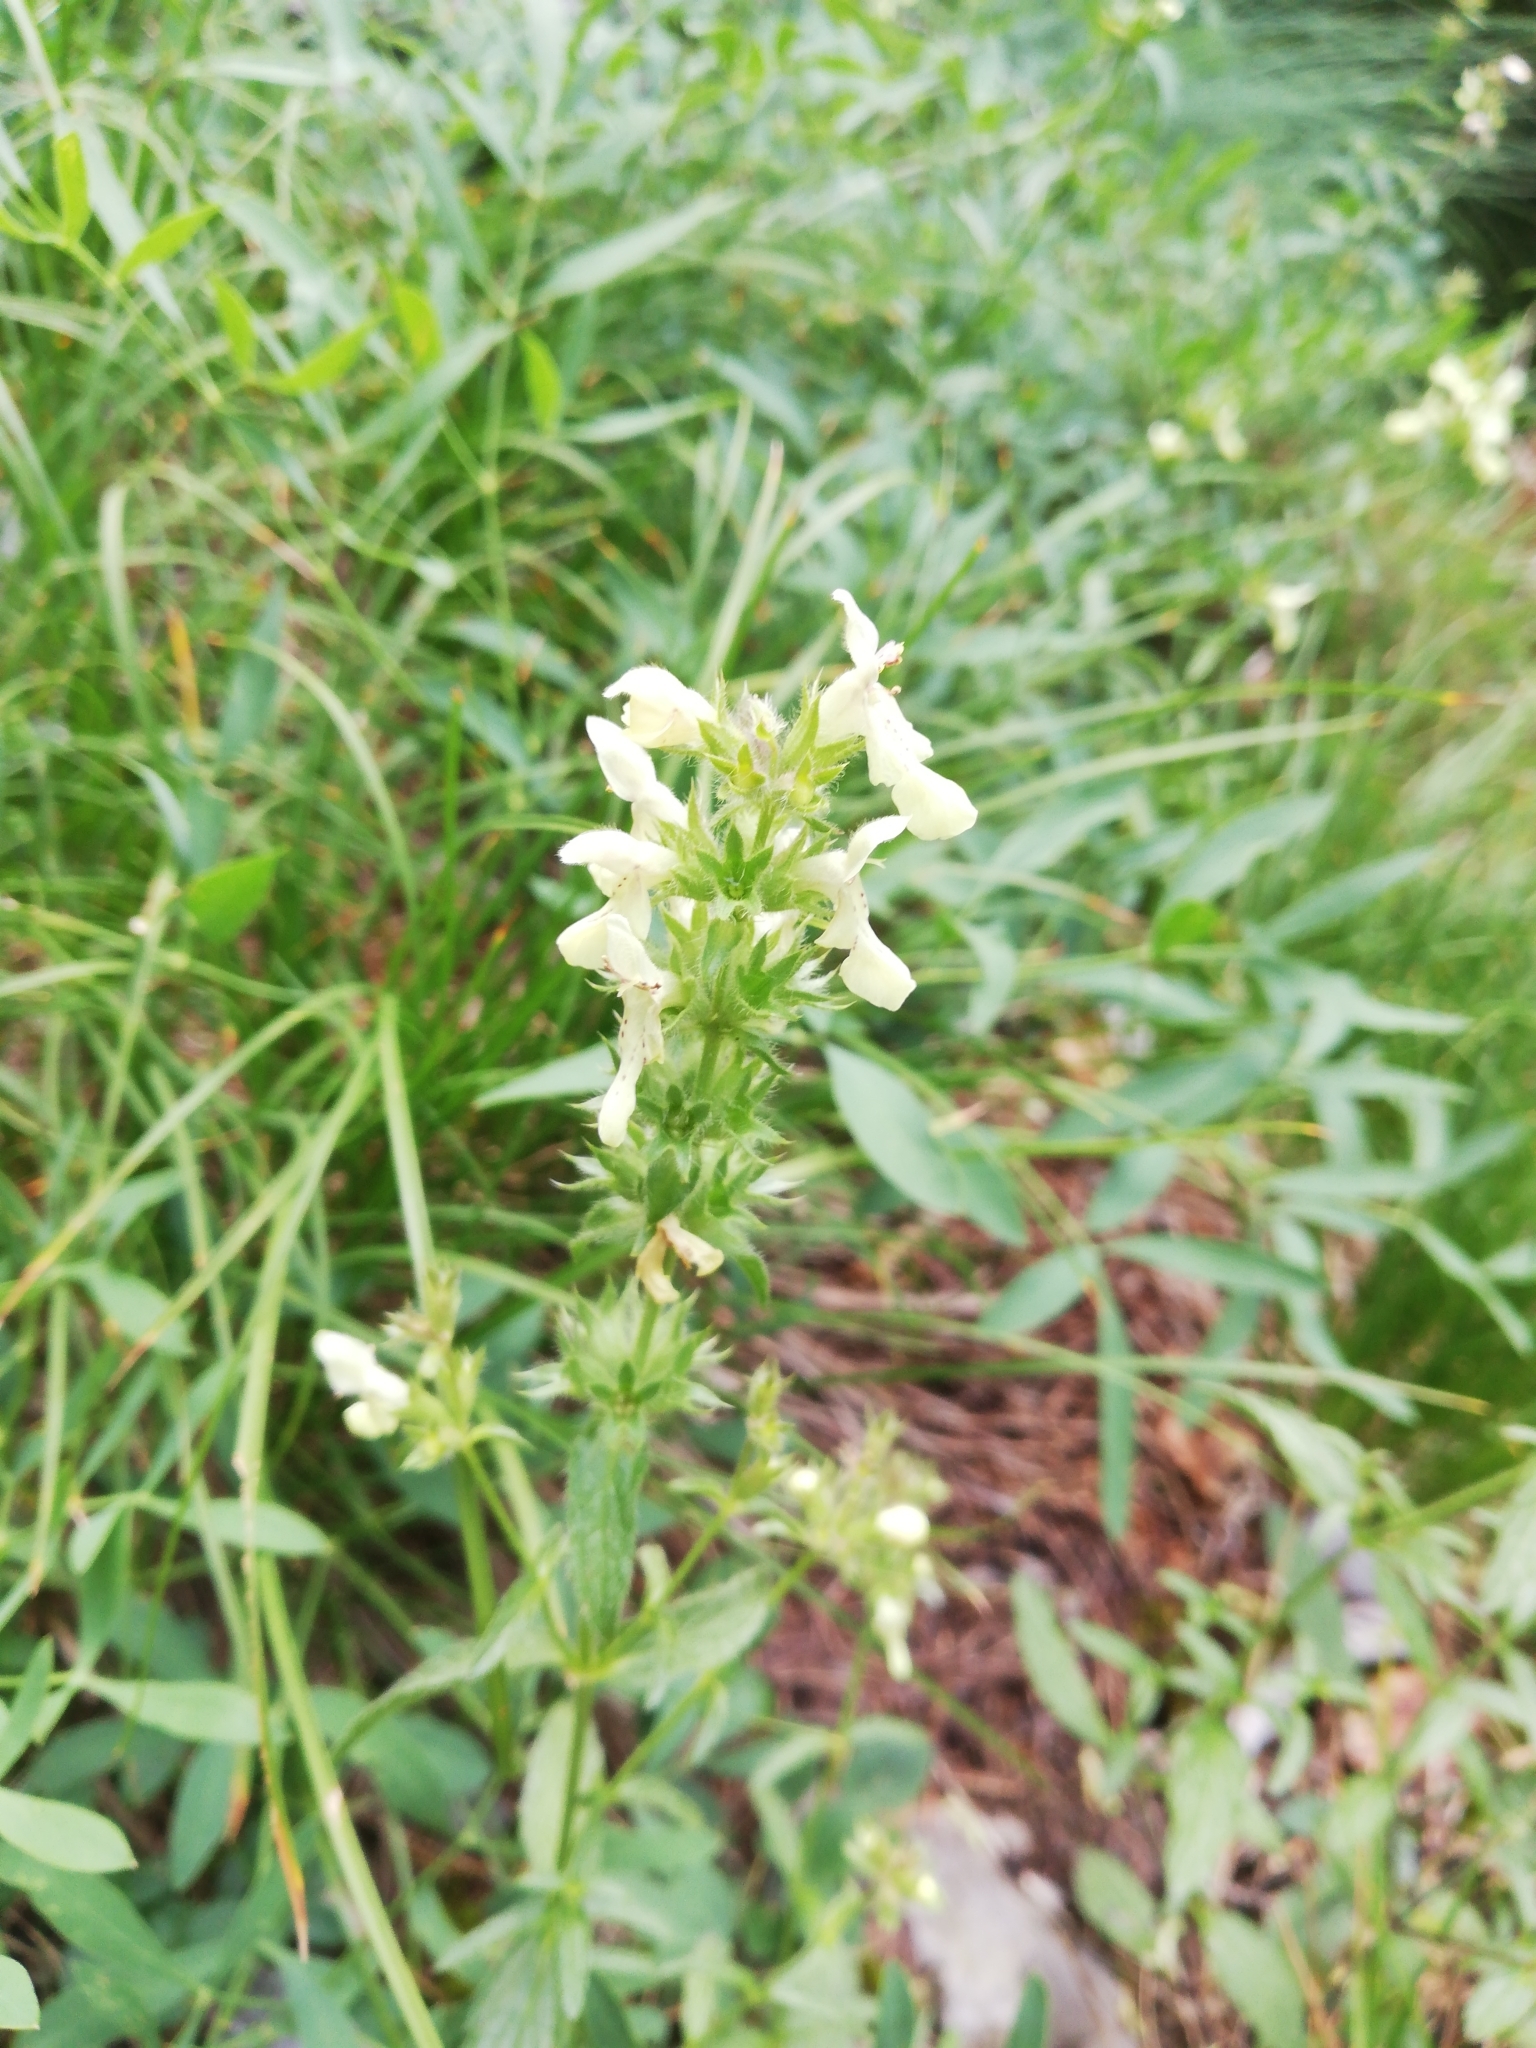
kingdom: Plantae
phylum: Tracheophyta
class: Magnoliopsida
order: Lamiales
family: Lamiaceae
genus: Stachys
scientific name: Stachys recta
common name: Perennial yellow-woundwort
